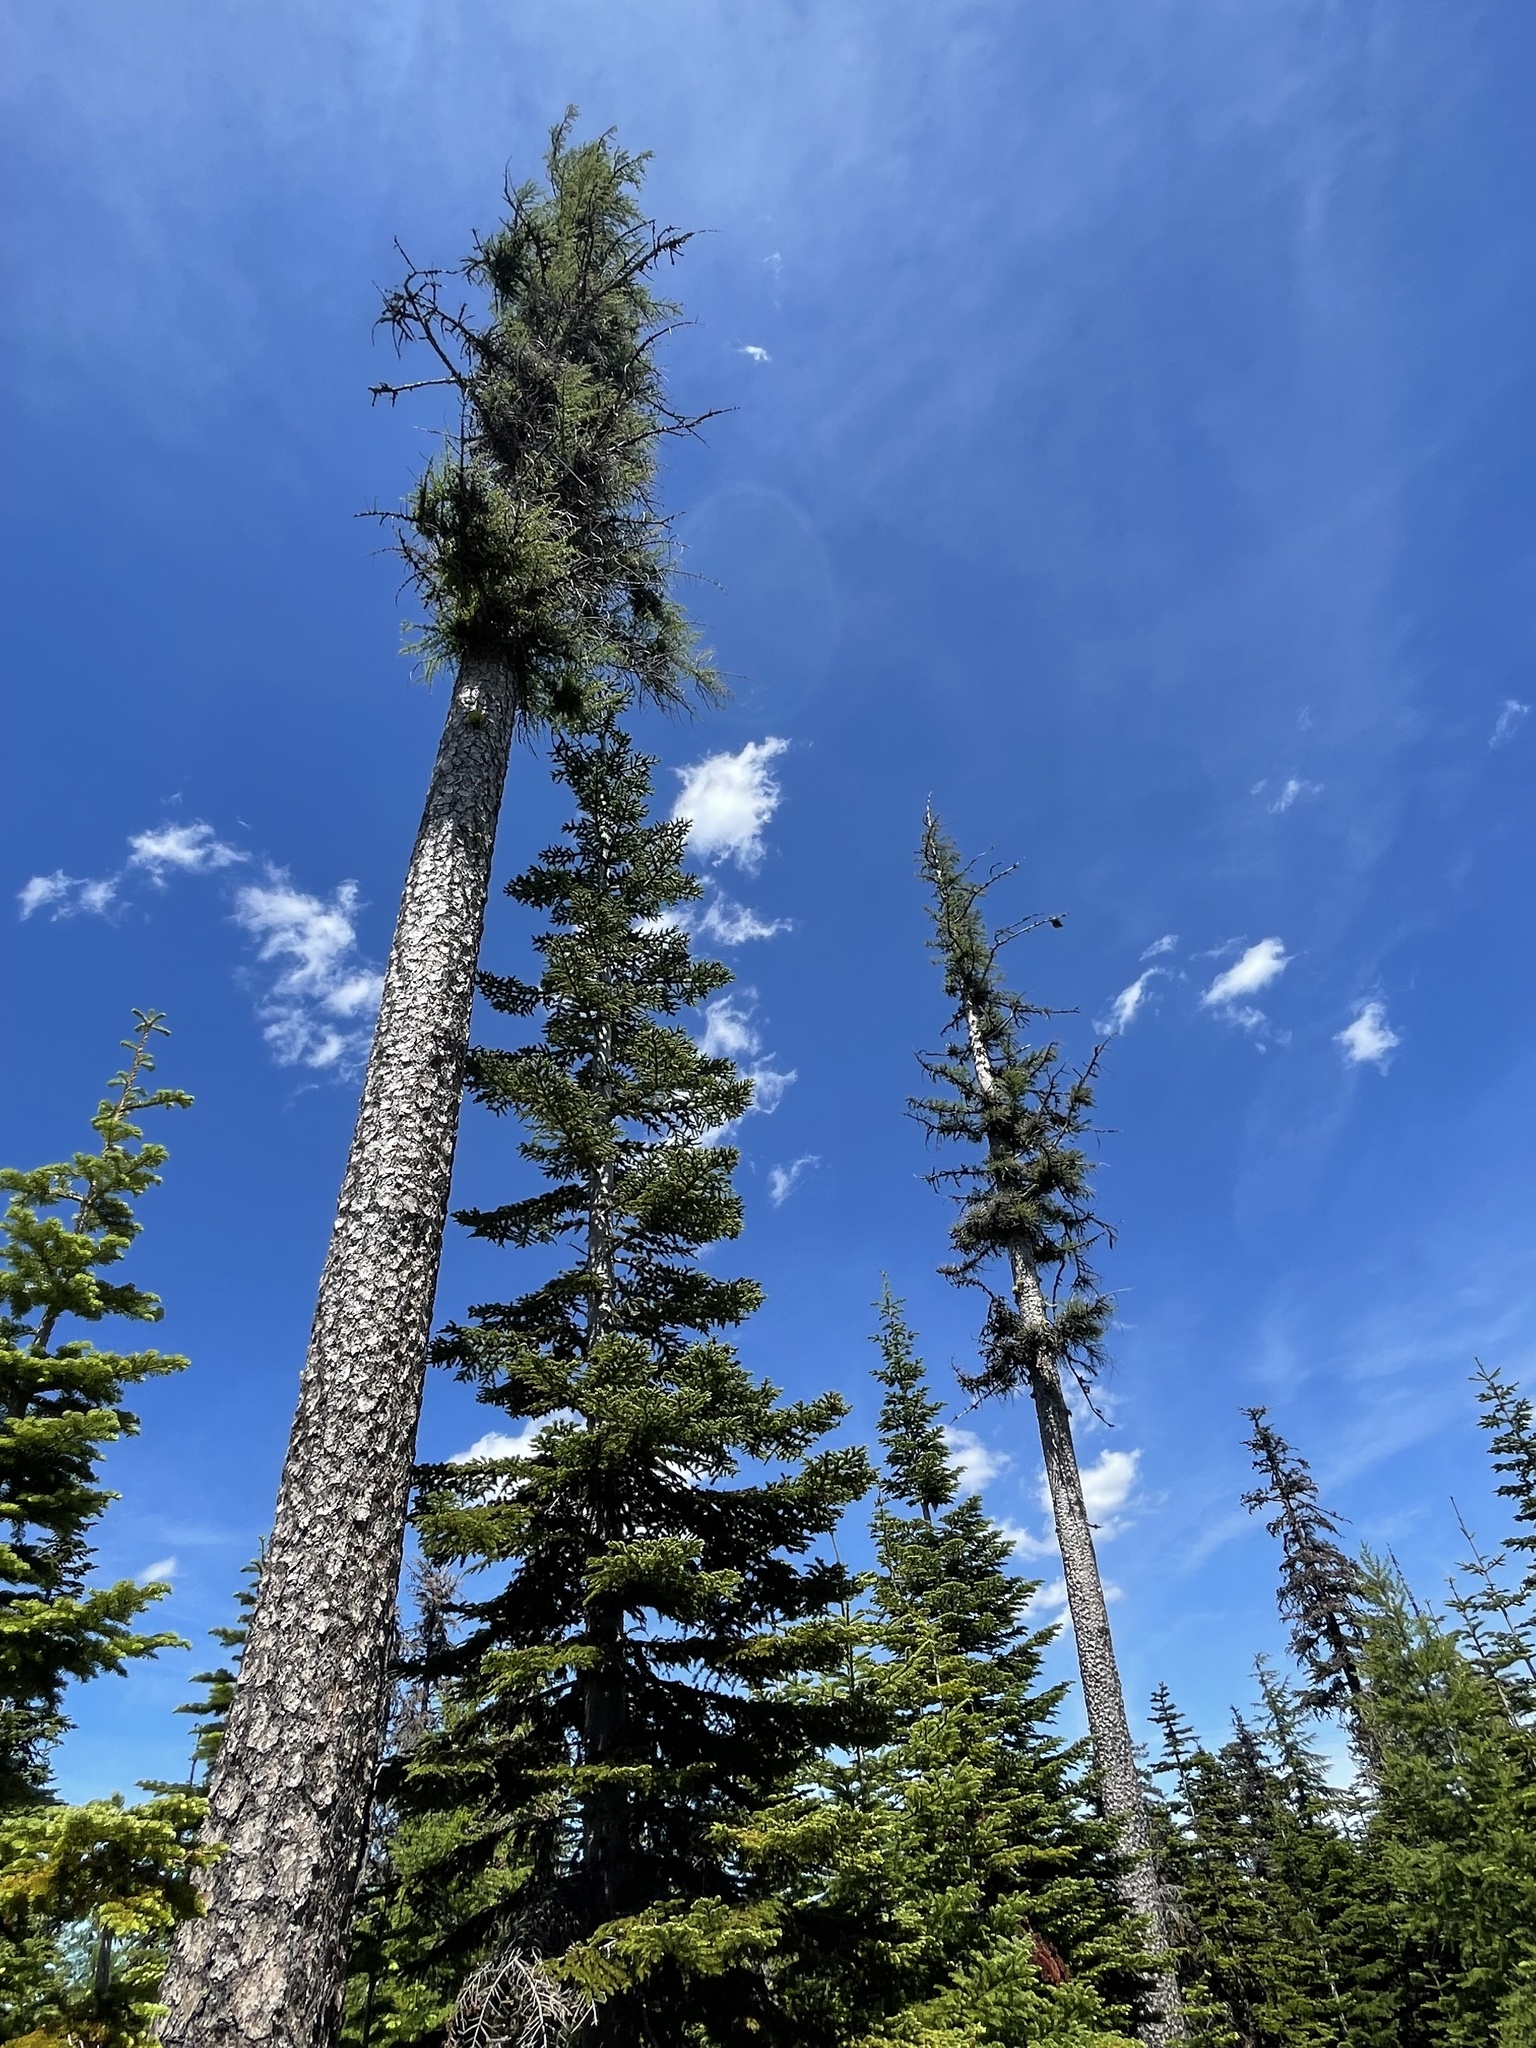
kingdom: Plantae
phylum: Tracheophyta
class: Pinopsida
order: Pinales
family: Pinaceae
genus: Larix
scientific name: Larix occidentalis
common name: Western larch
